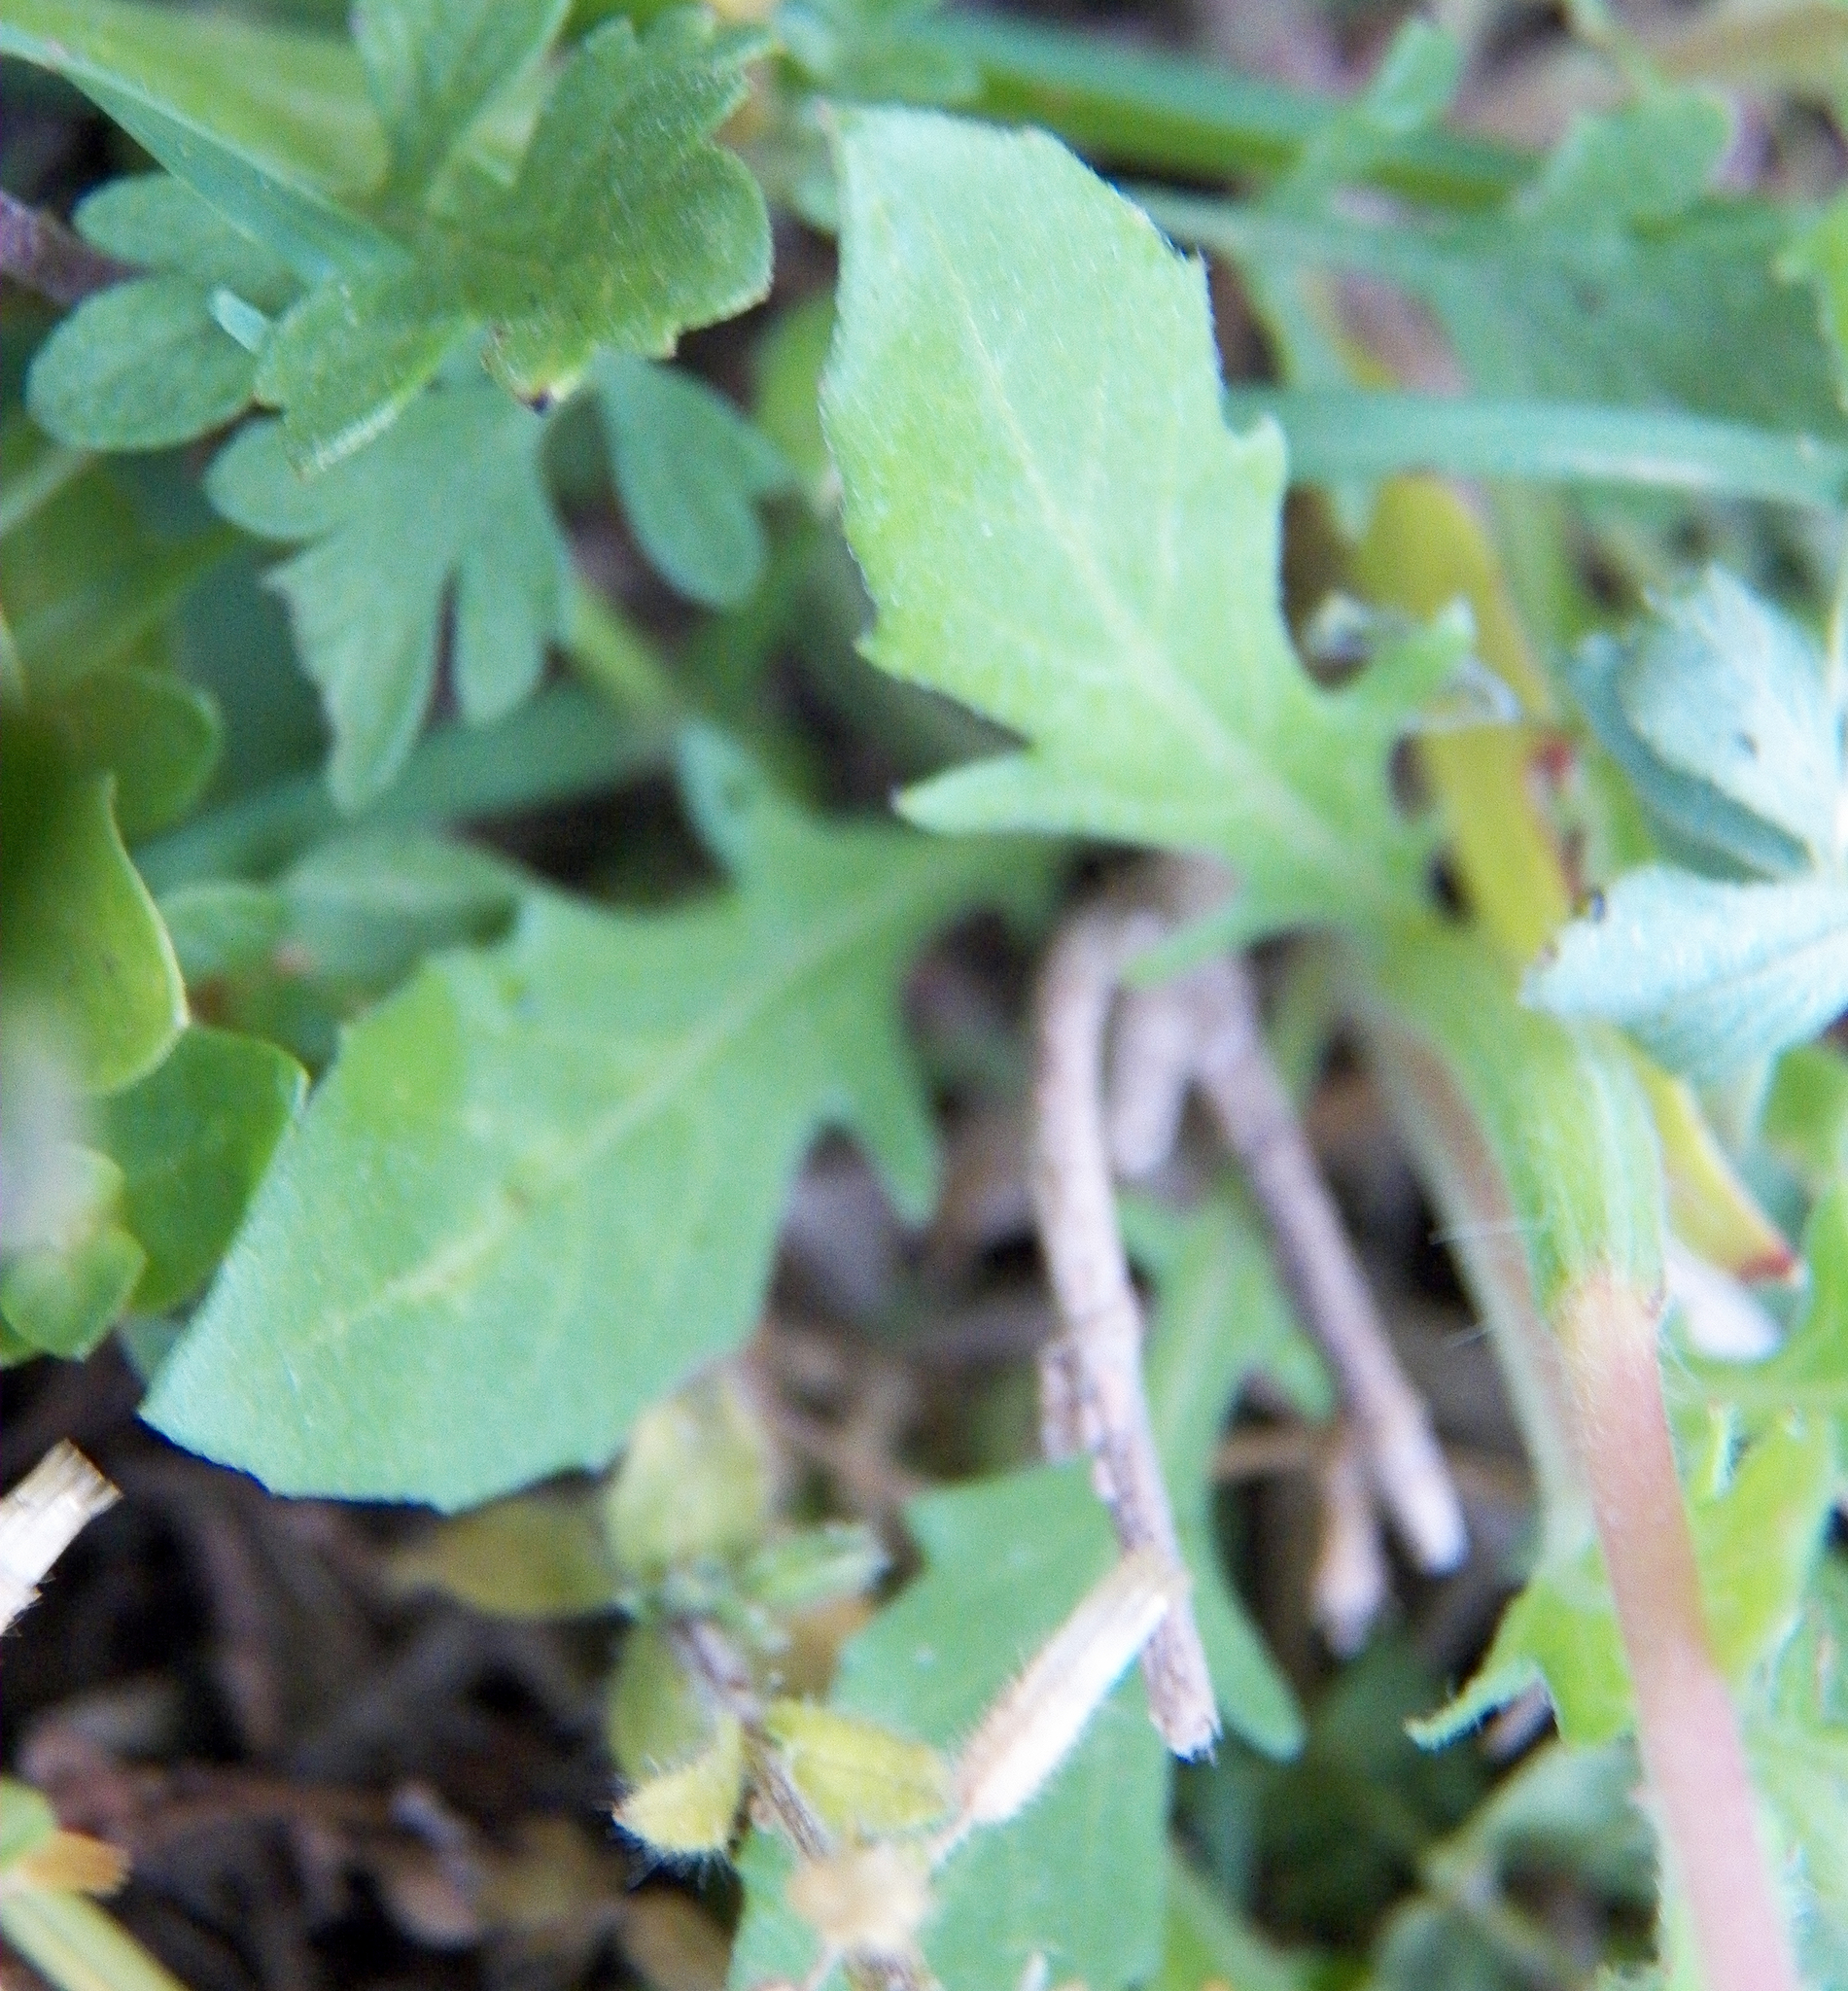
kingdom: Plantae
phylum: Tracheophyta
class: Magnoliopsida
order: Myrtales
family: Onagraceae
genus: Oenothera
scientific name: Oenothera laciniata
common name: Cut-leaved evening-primrose
